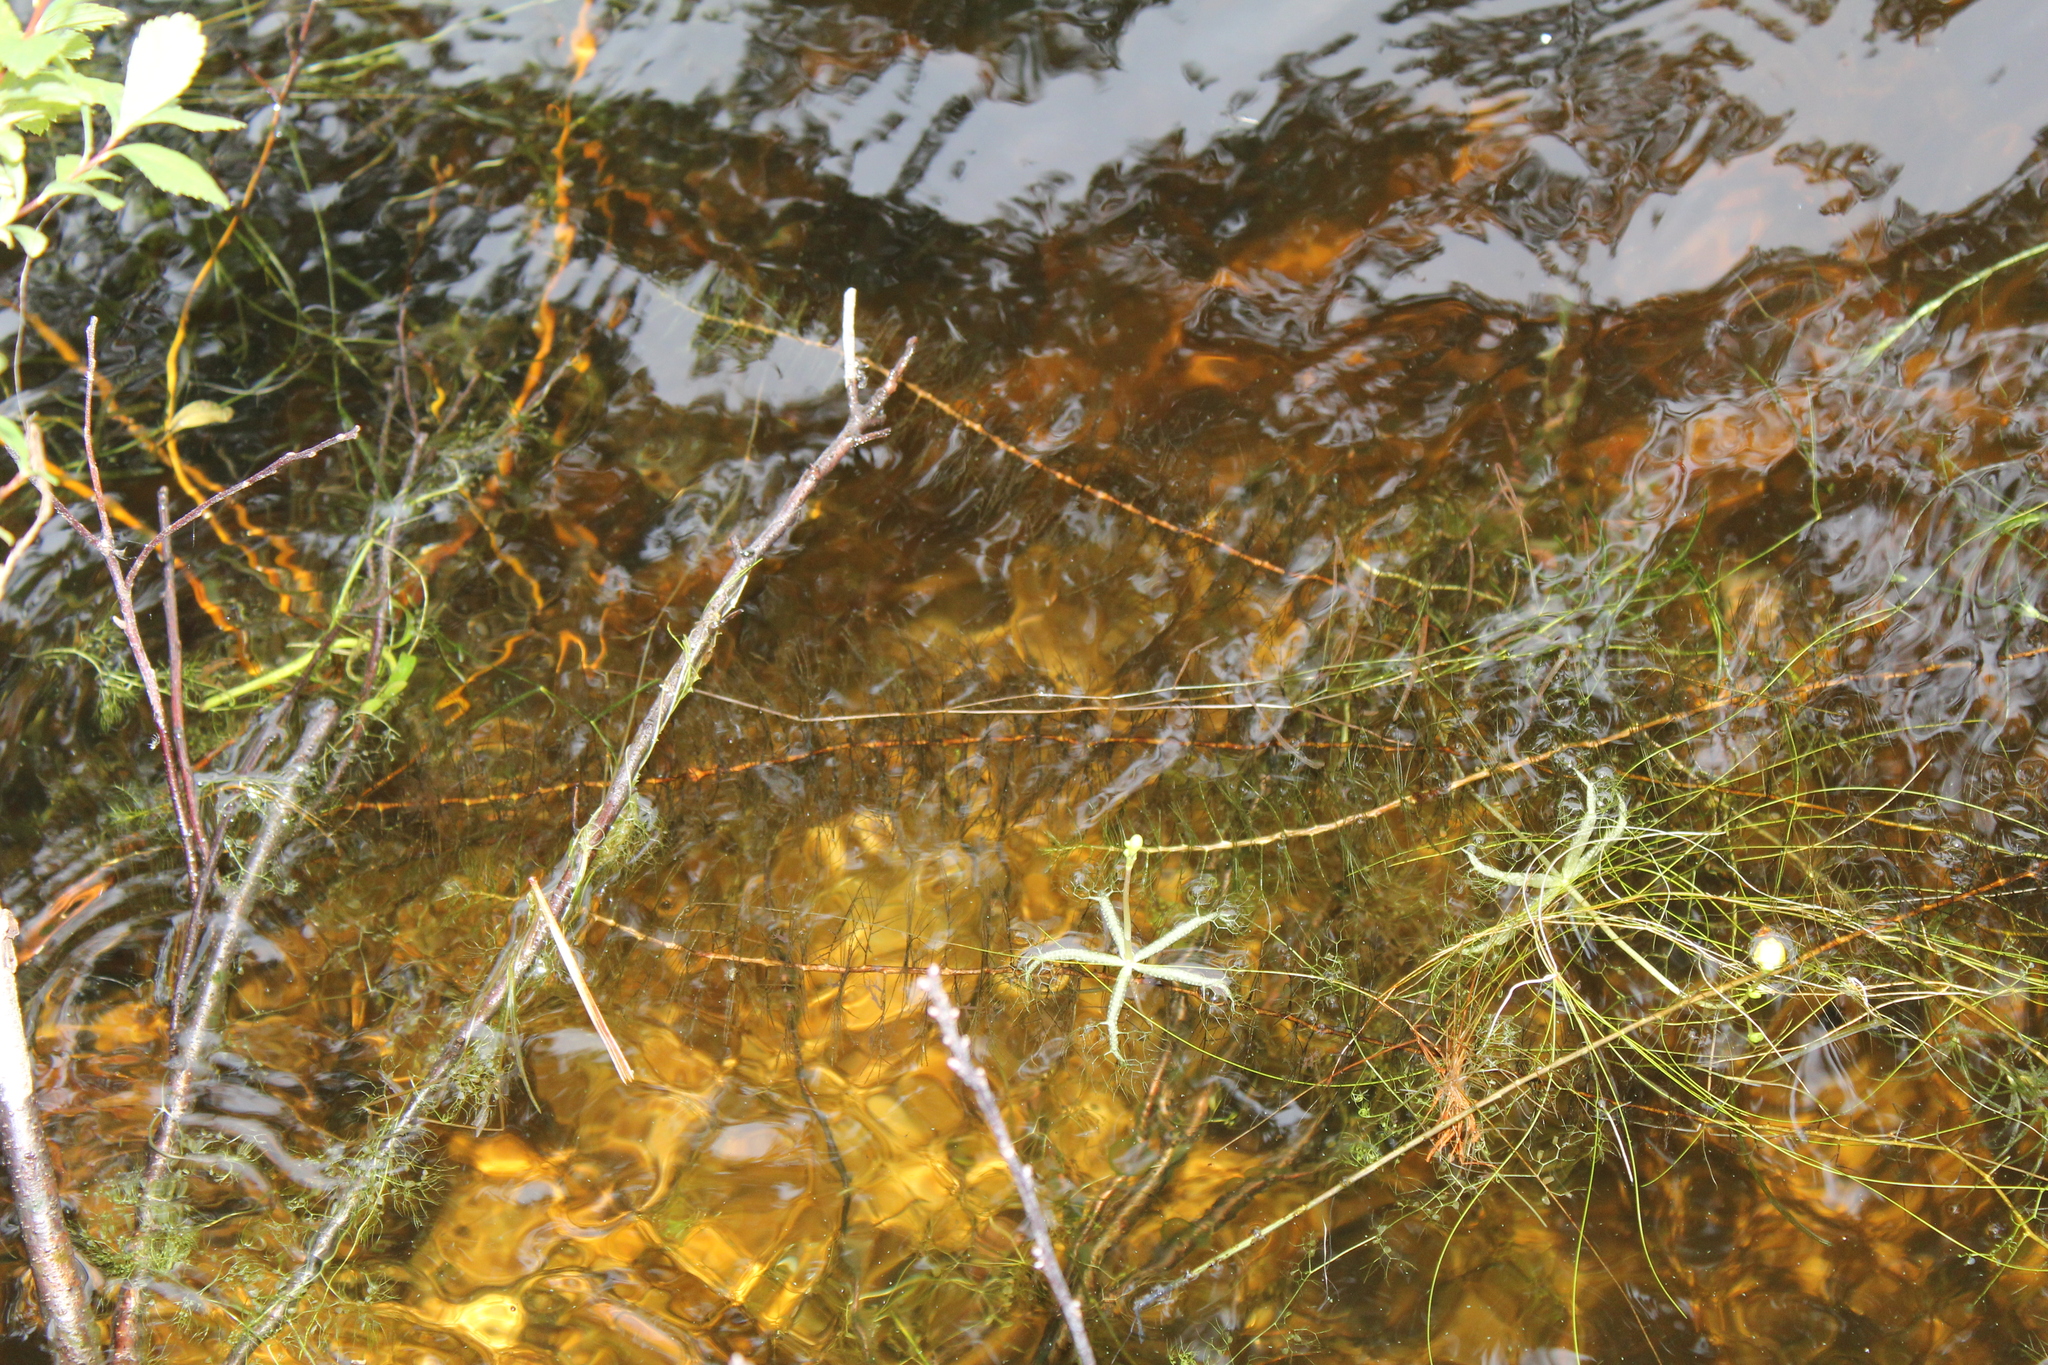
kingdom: Plantae
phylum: Tracheophyta
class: Magnoliopsida
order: Lamiales
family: Lentibulariaceae
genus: Utricularia
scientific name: Utricularia radiata
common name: Floating bladderwort
